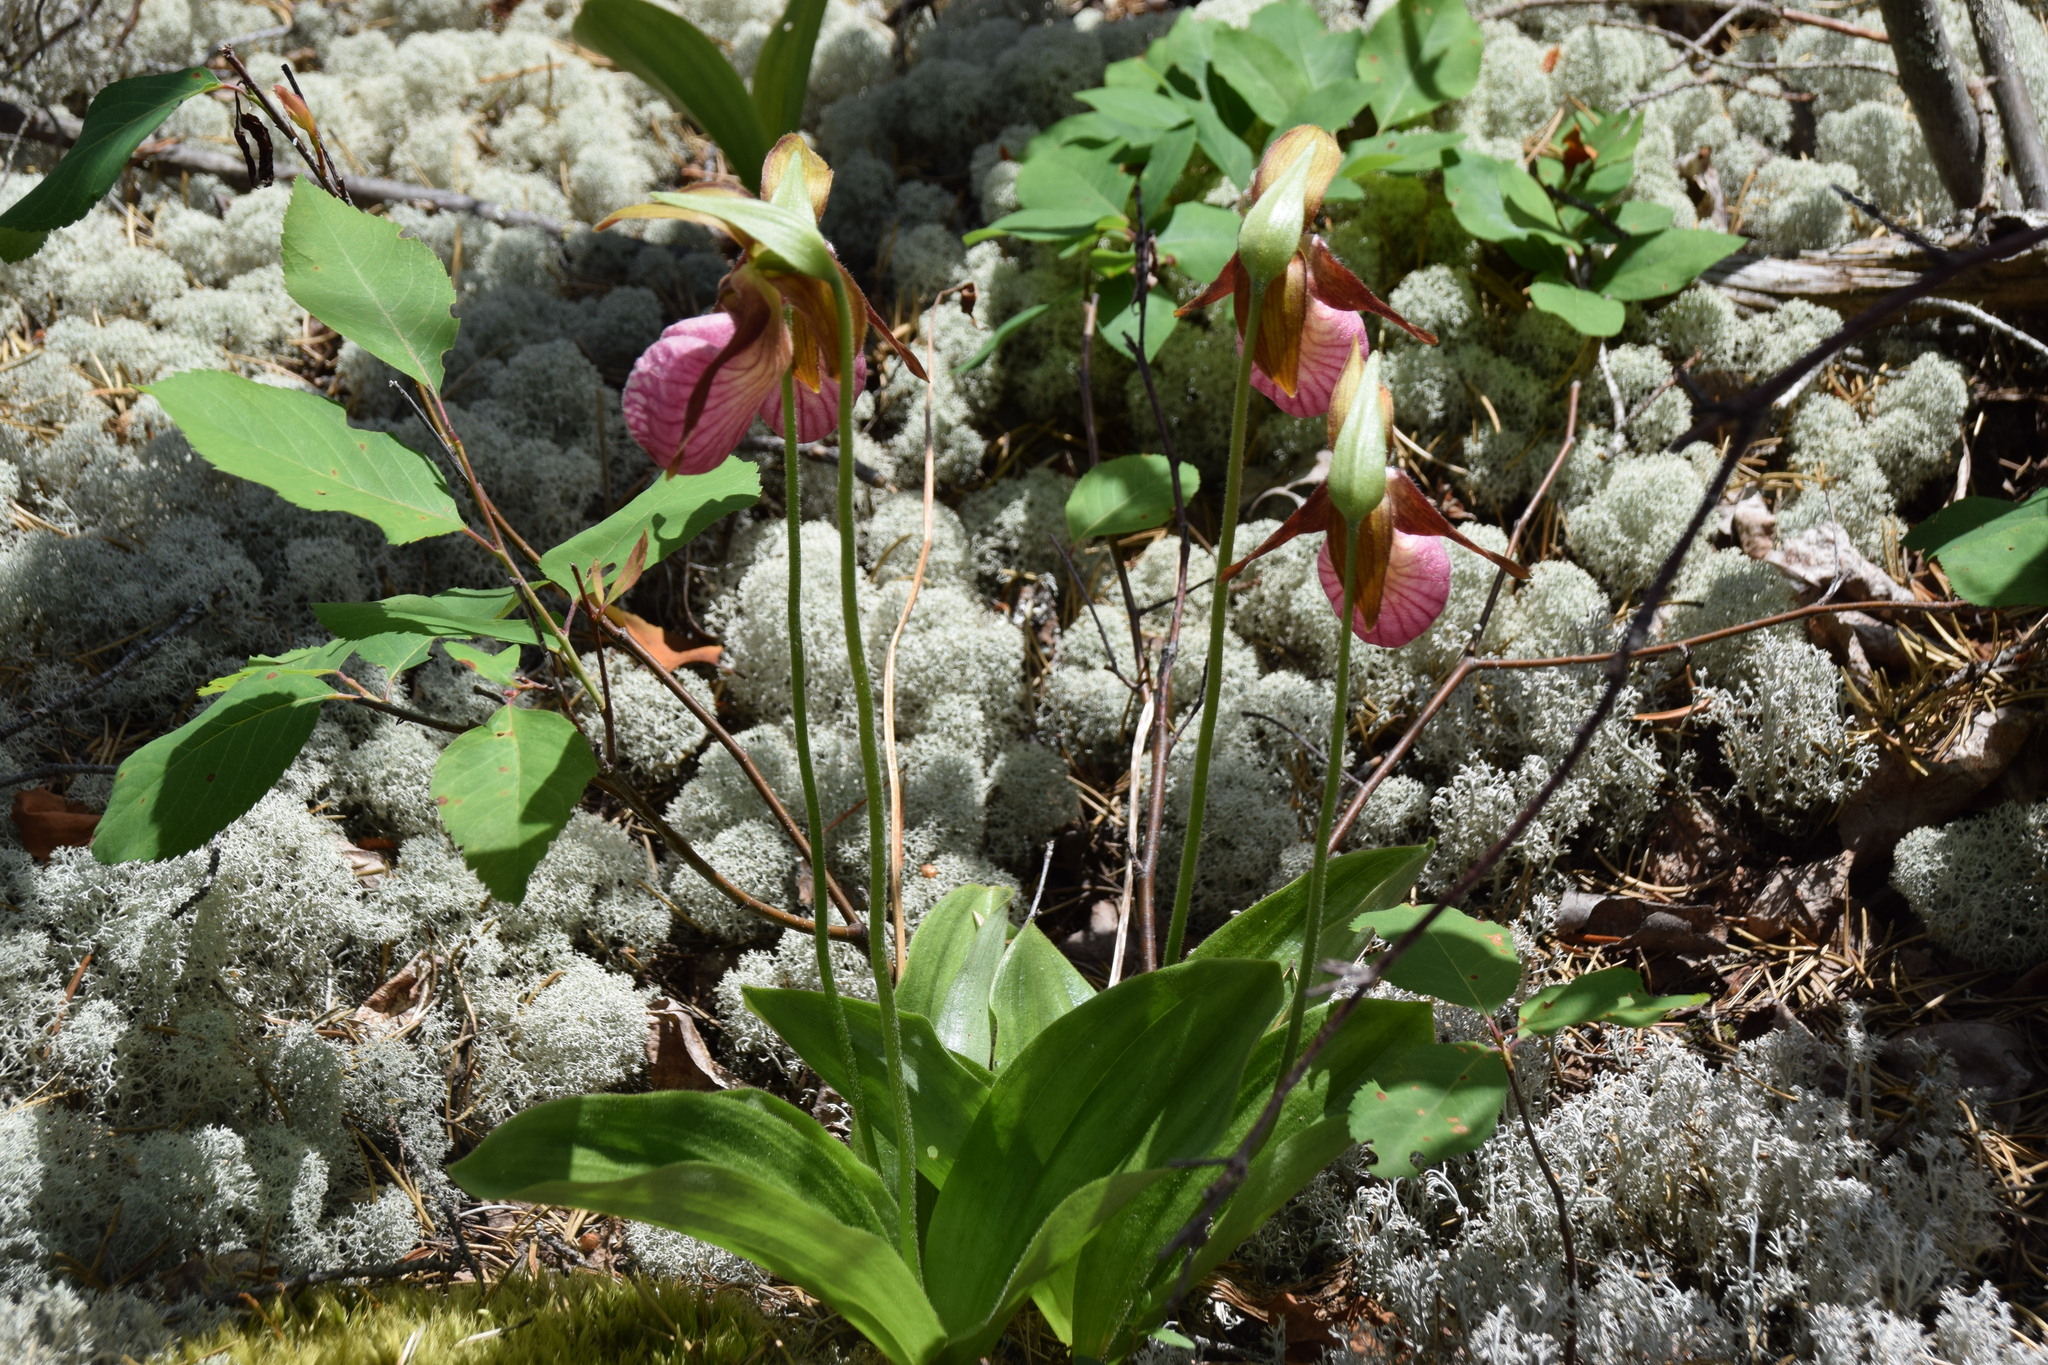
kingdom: Plantae
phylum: Tracheophyta
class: Liliopsida
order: Asparagales
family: Orchidaceae
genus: Cypripedium
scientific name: Cypripedium acaule
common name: Pink lady's-slipper
